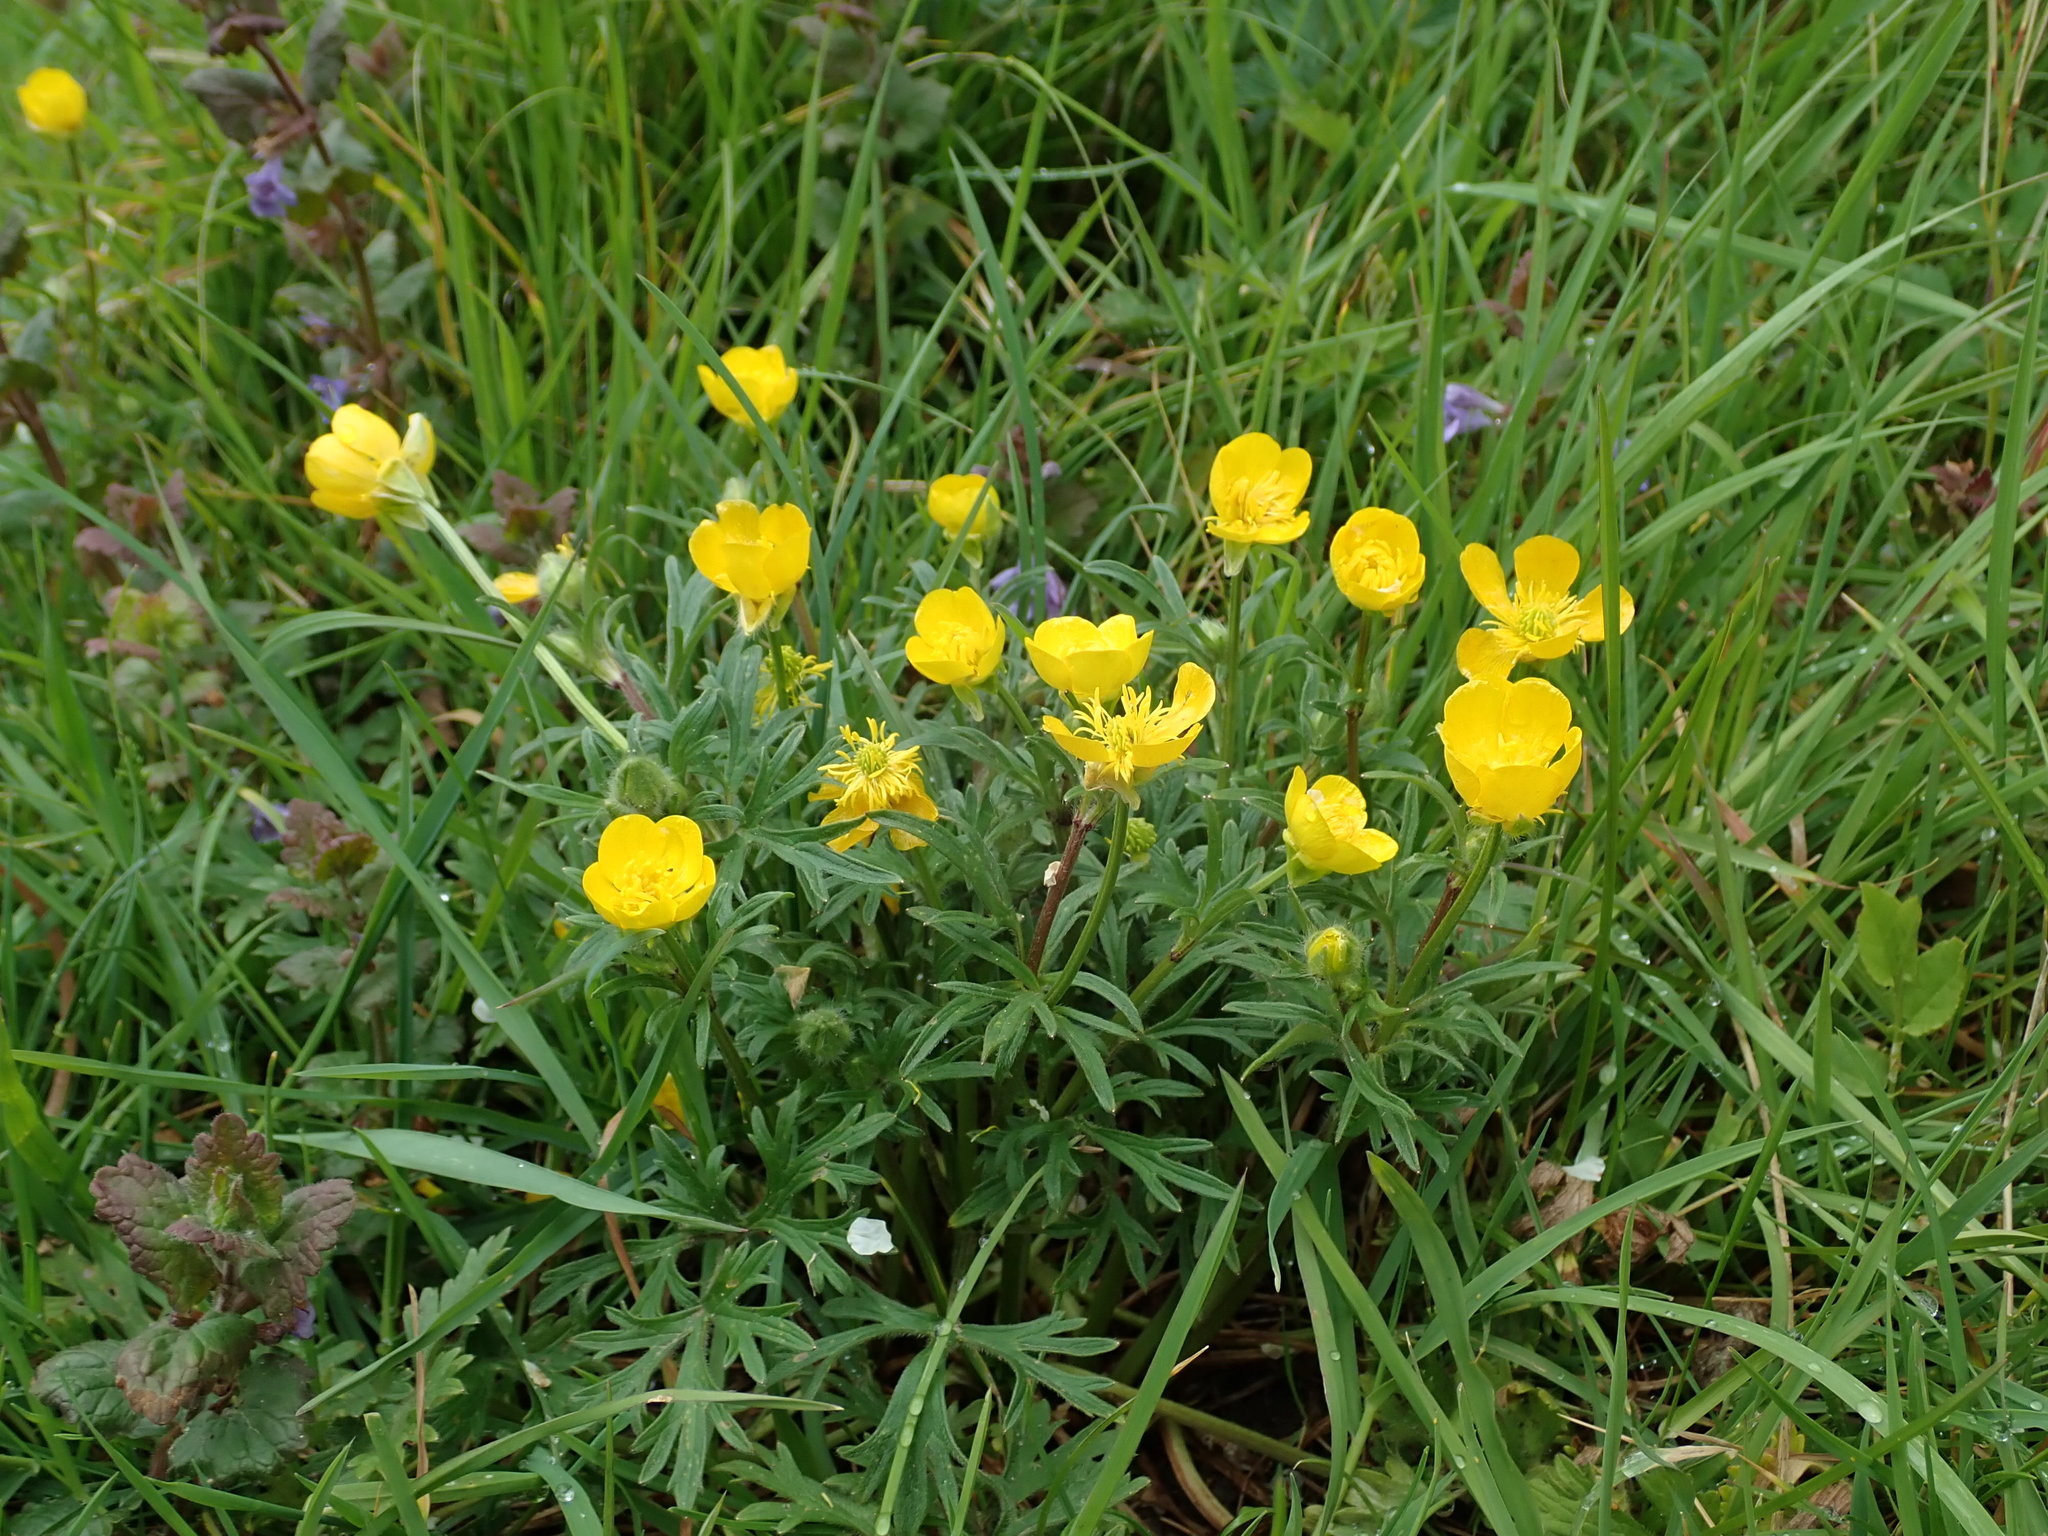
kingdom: Plantae
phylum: Tracheophyta
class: Magnoliopsida
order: Ranunculales
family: Ranunculaceae
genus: Ranunculus
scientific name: Ranunculus bulbosus
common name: Bulbous buttercup
